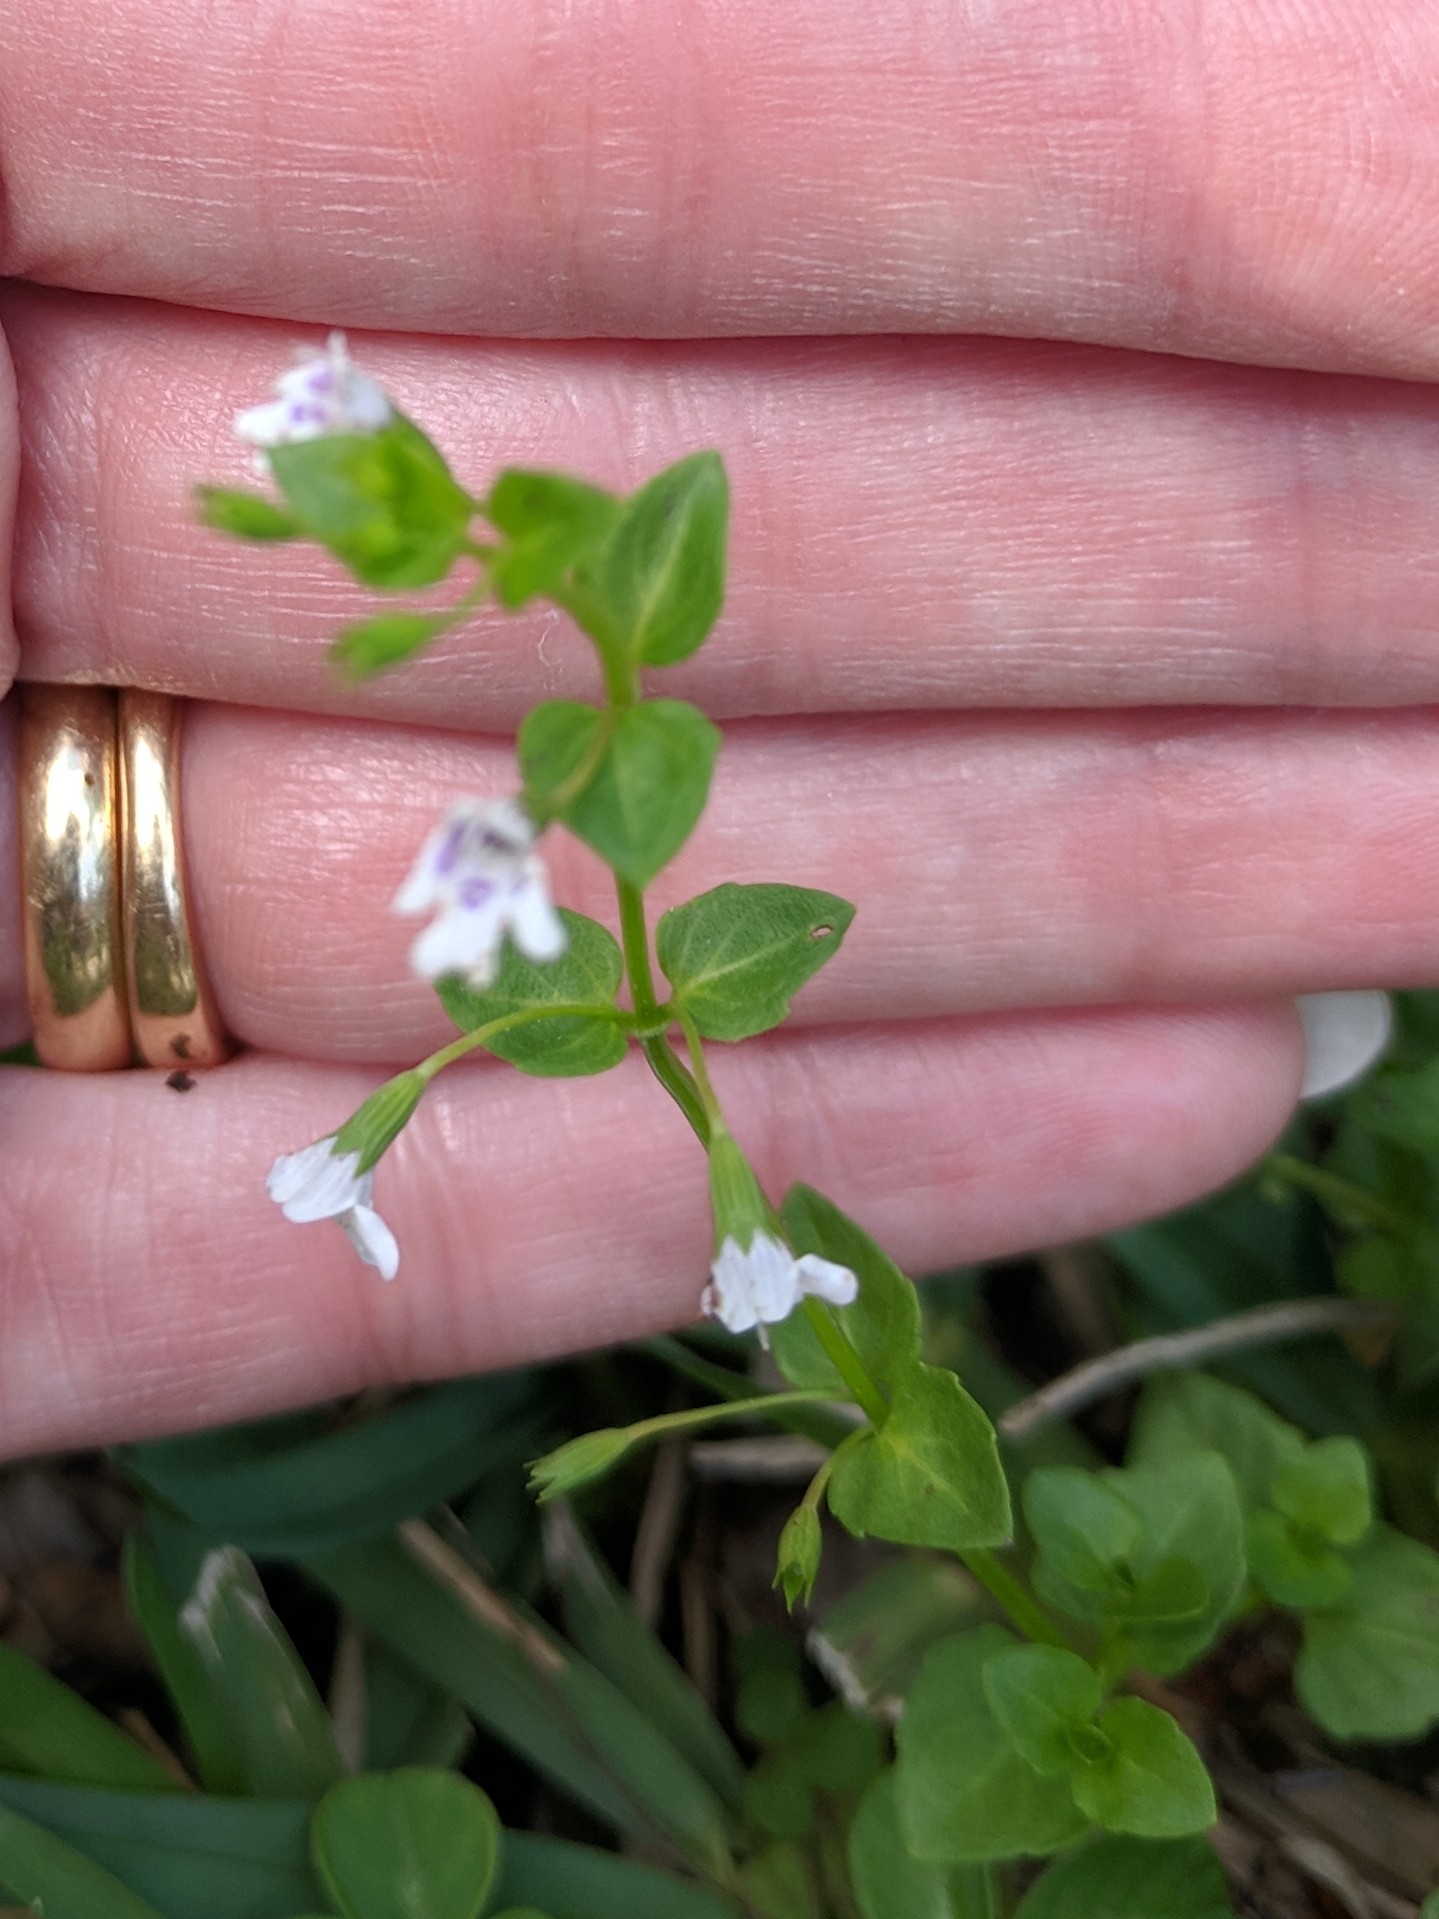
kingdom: Plantae
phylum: Tracheophyta
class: Magnoliopsida
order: Lamiales
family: Lamiaceae
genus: Clinopodium
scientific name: Clinopodium brownei
